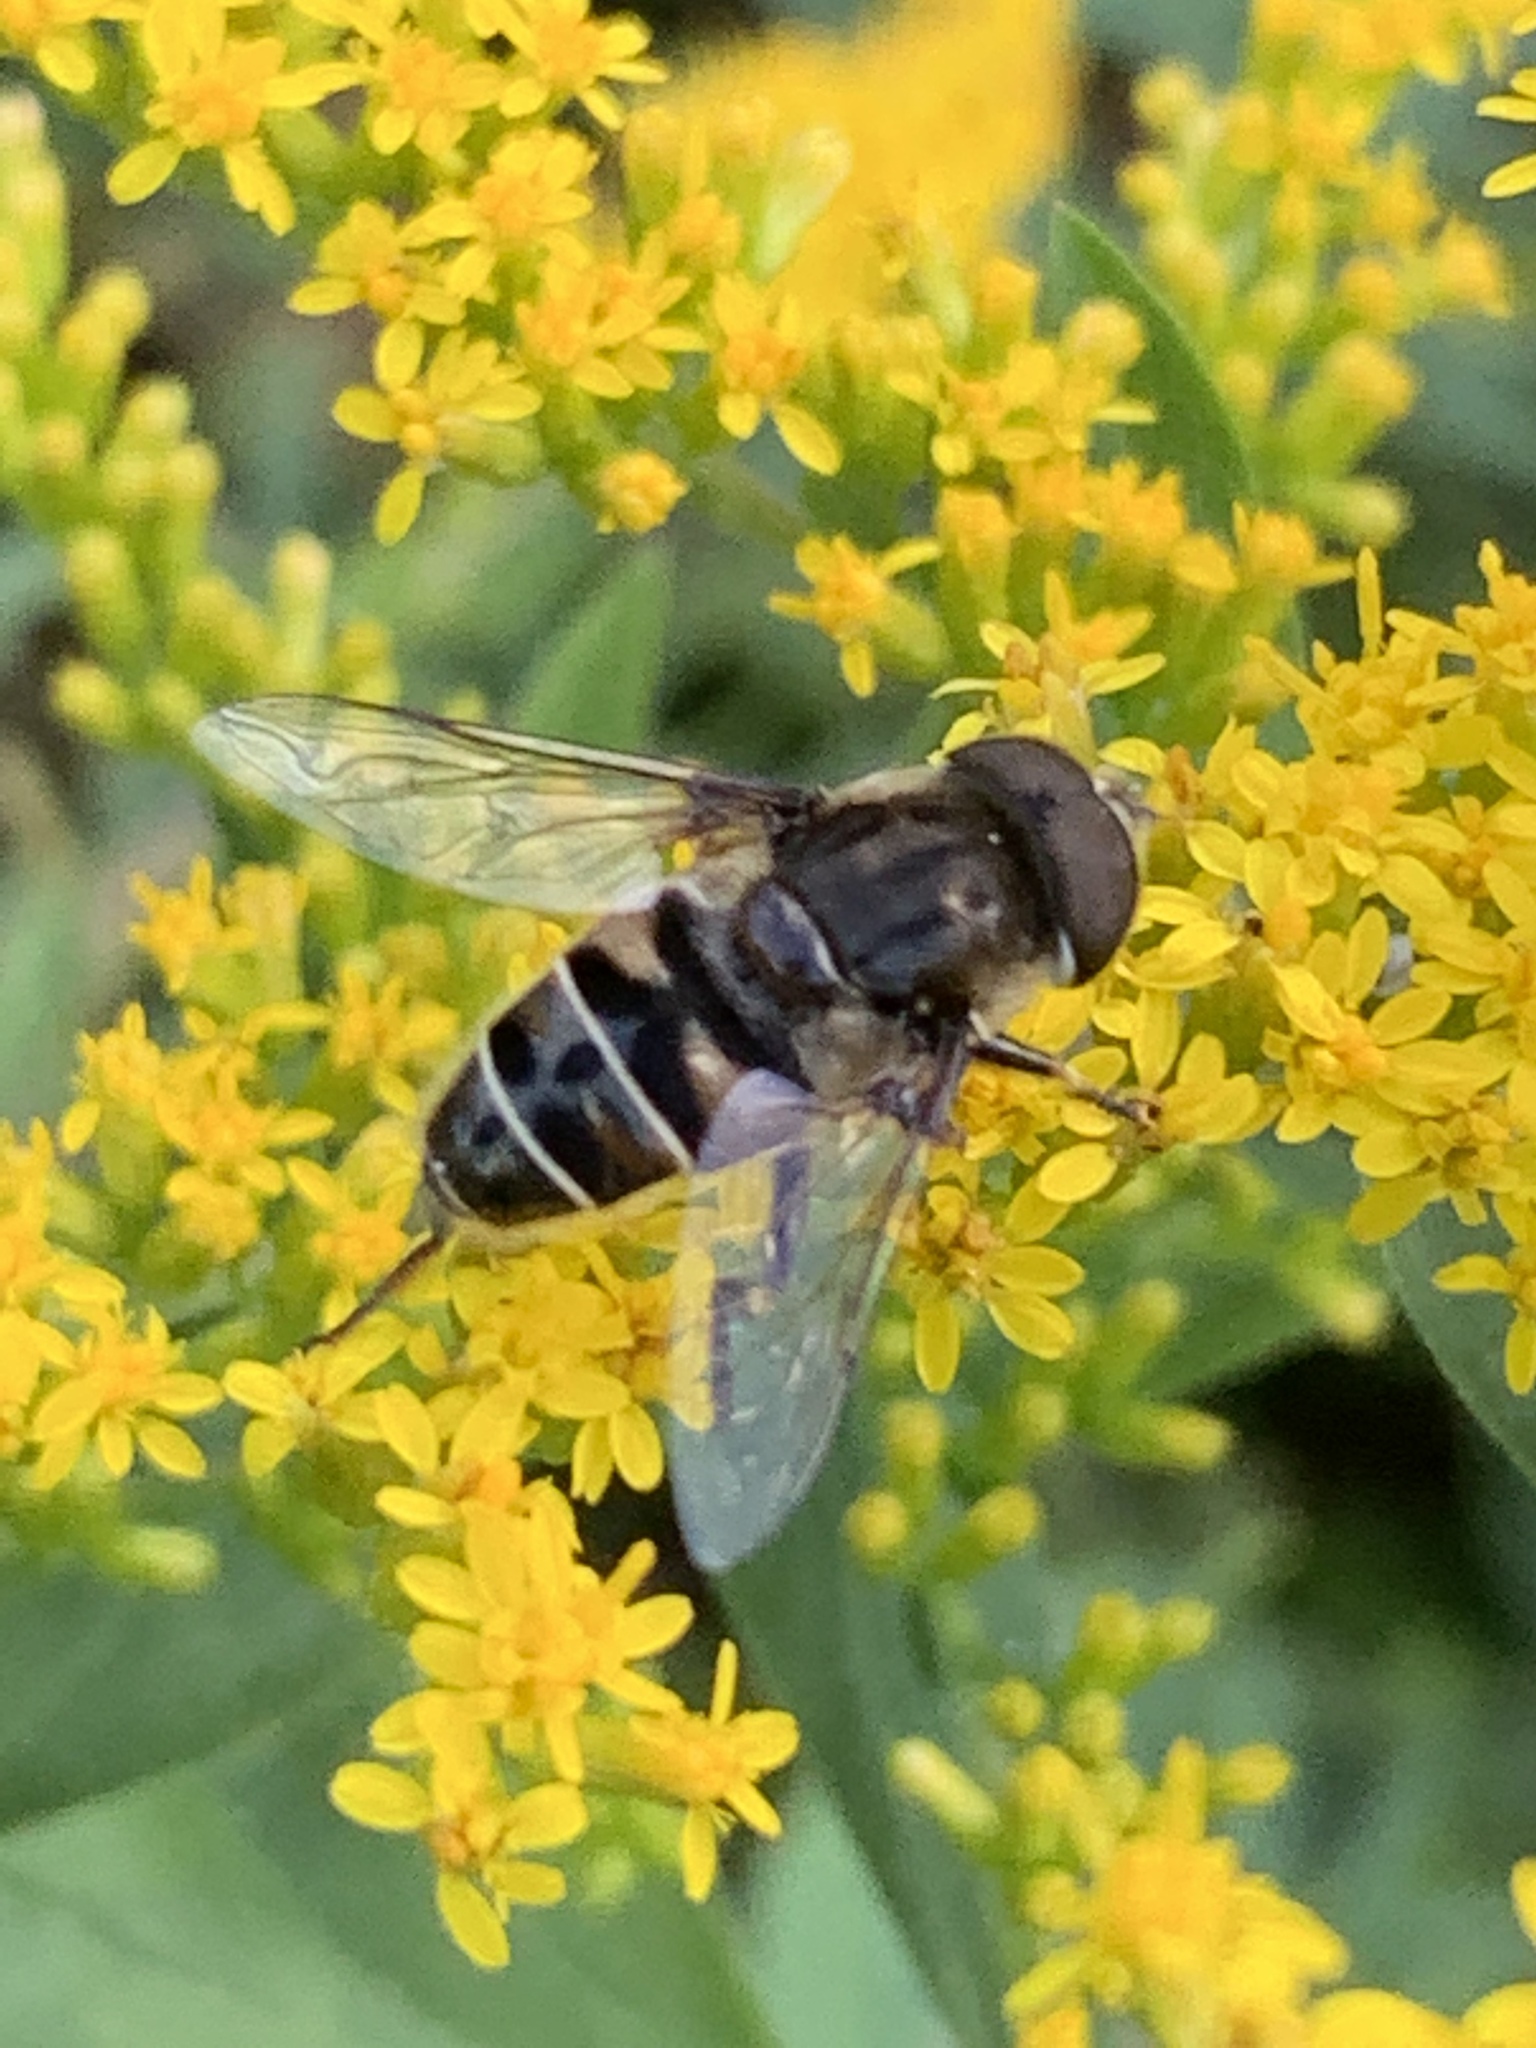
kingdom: Animalia
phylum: Arthropoda
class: Insecta
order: Diptera
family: Syrphidae
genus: Eristalis
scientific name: Eristalis dimidiata
